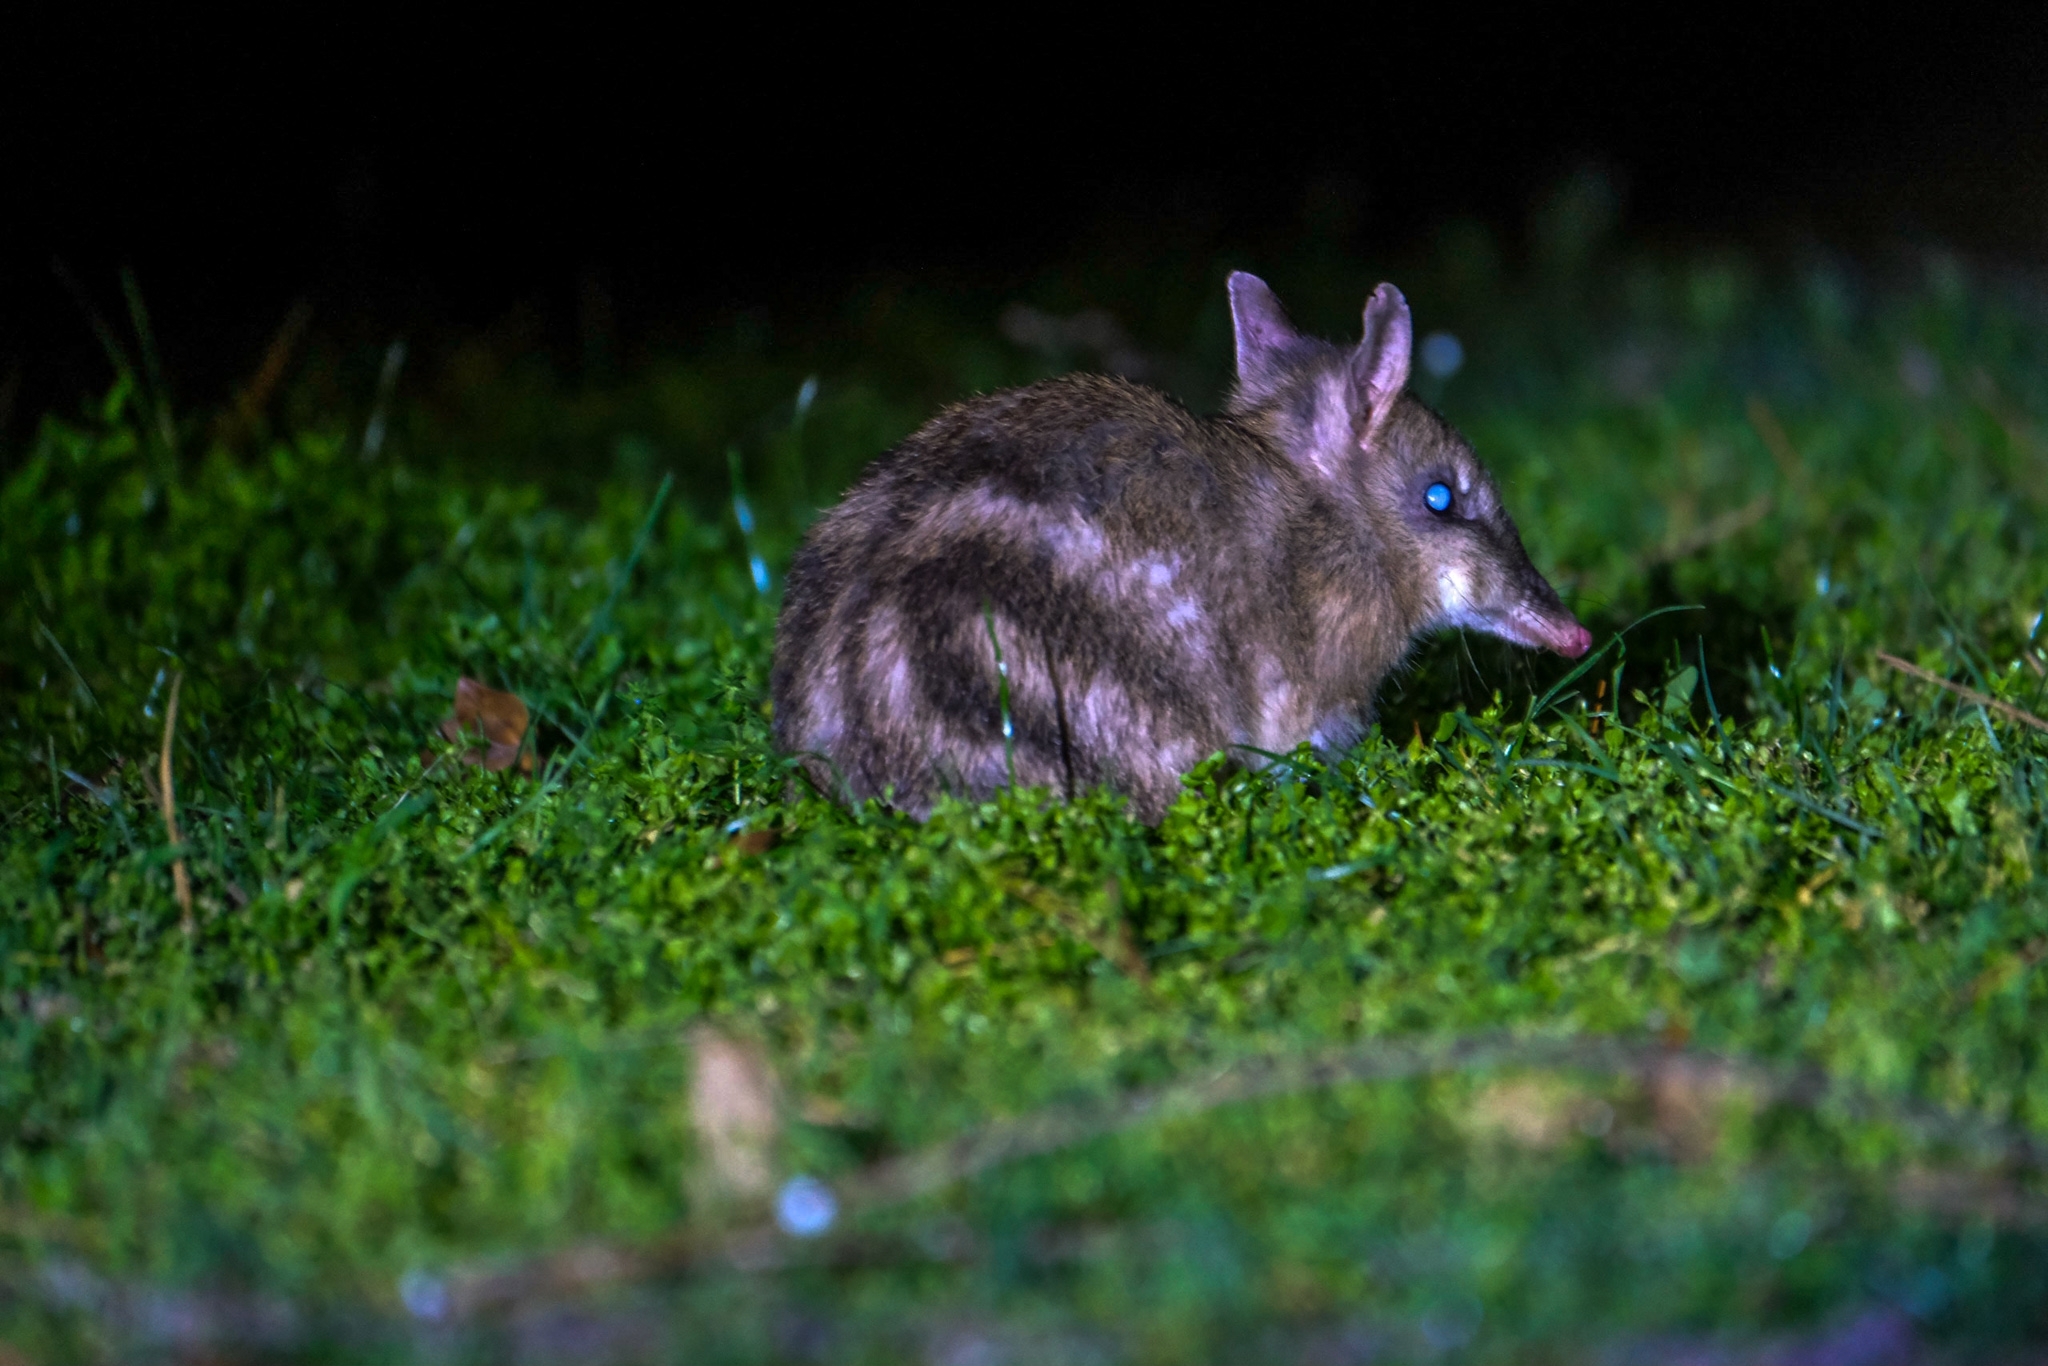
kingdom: Animalia
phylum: Chordata
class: Mammalia
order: Peramelemorphia
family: Peramelidae
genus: Perameles
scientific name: Perameles gunnii
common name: Eastern barred bandicoot
